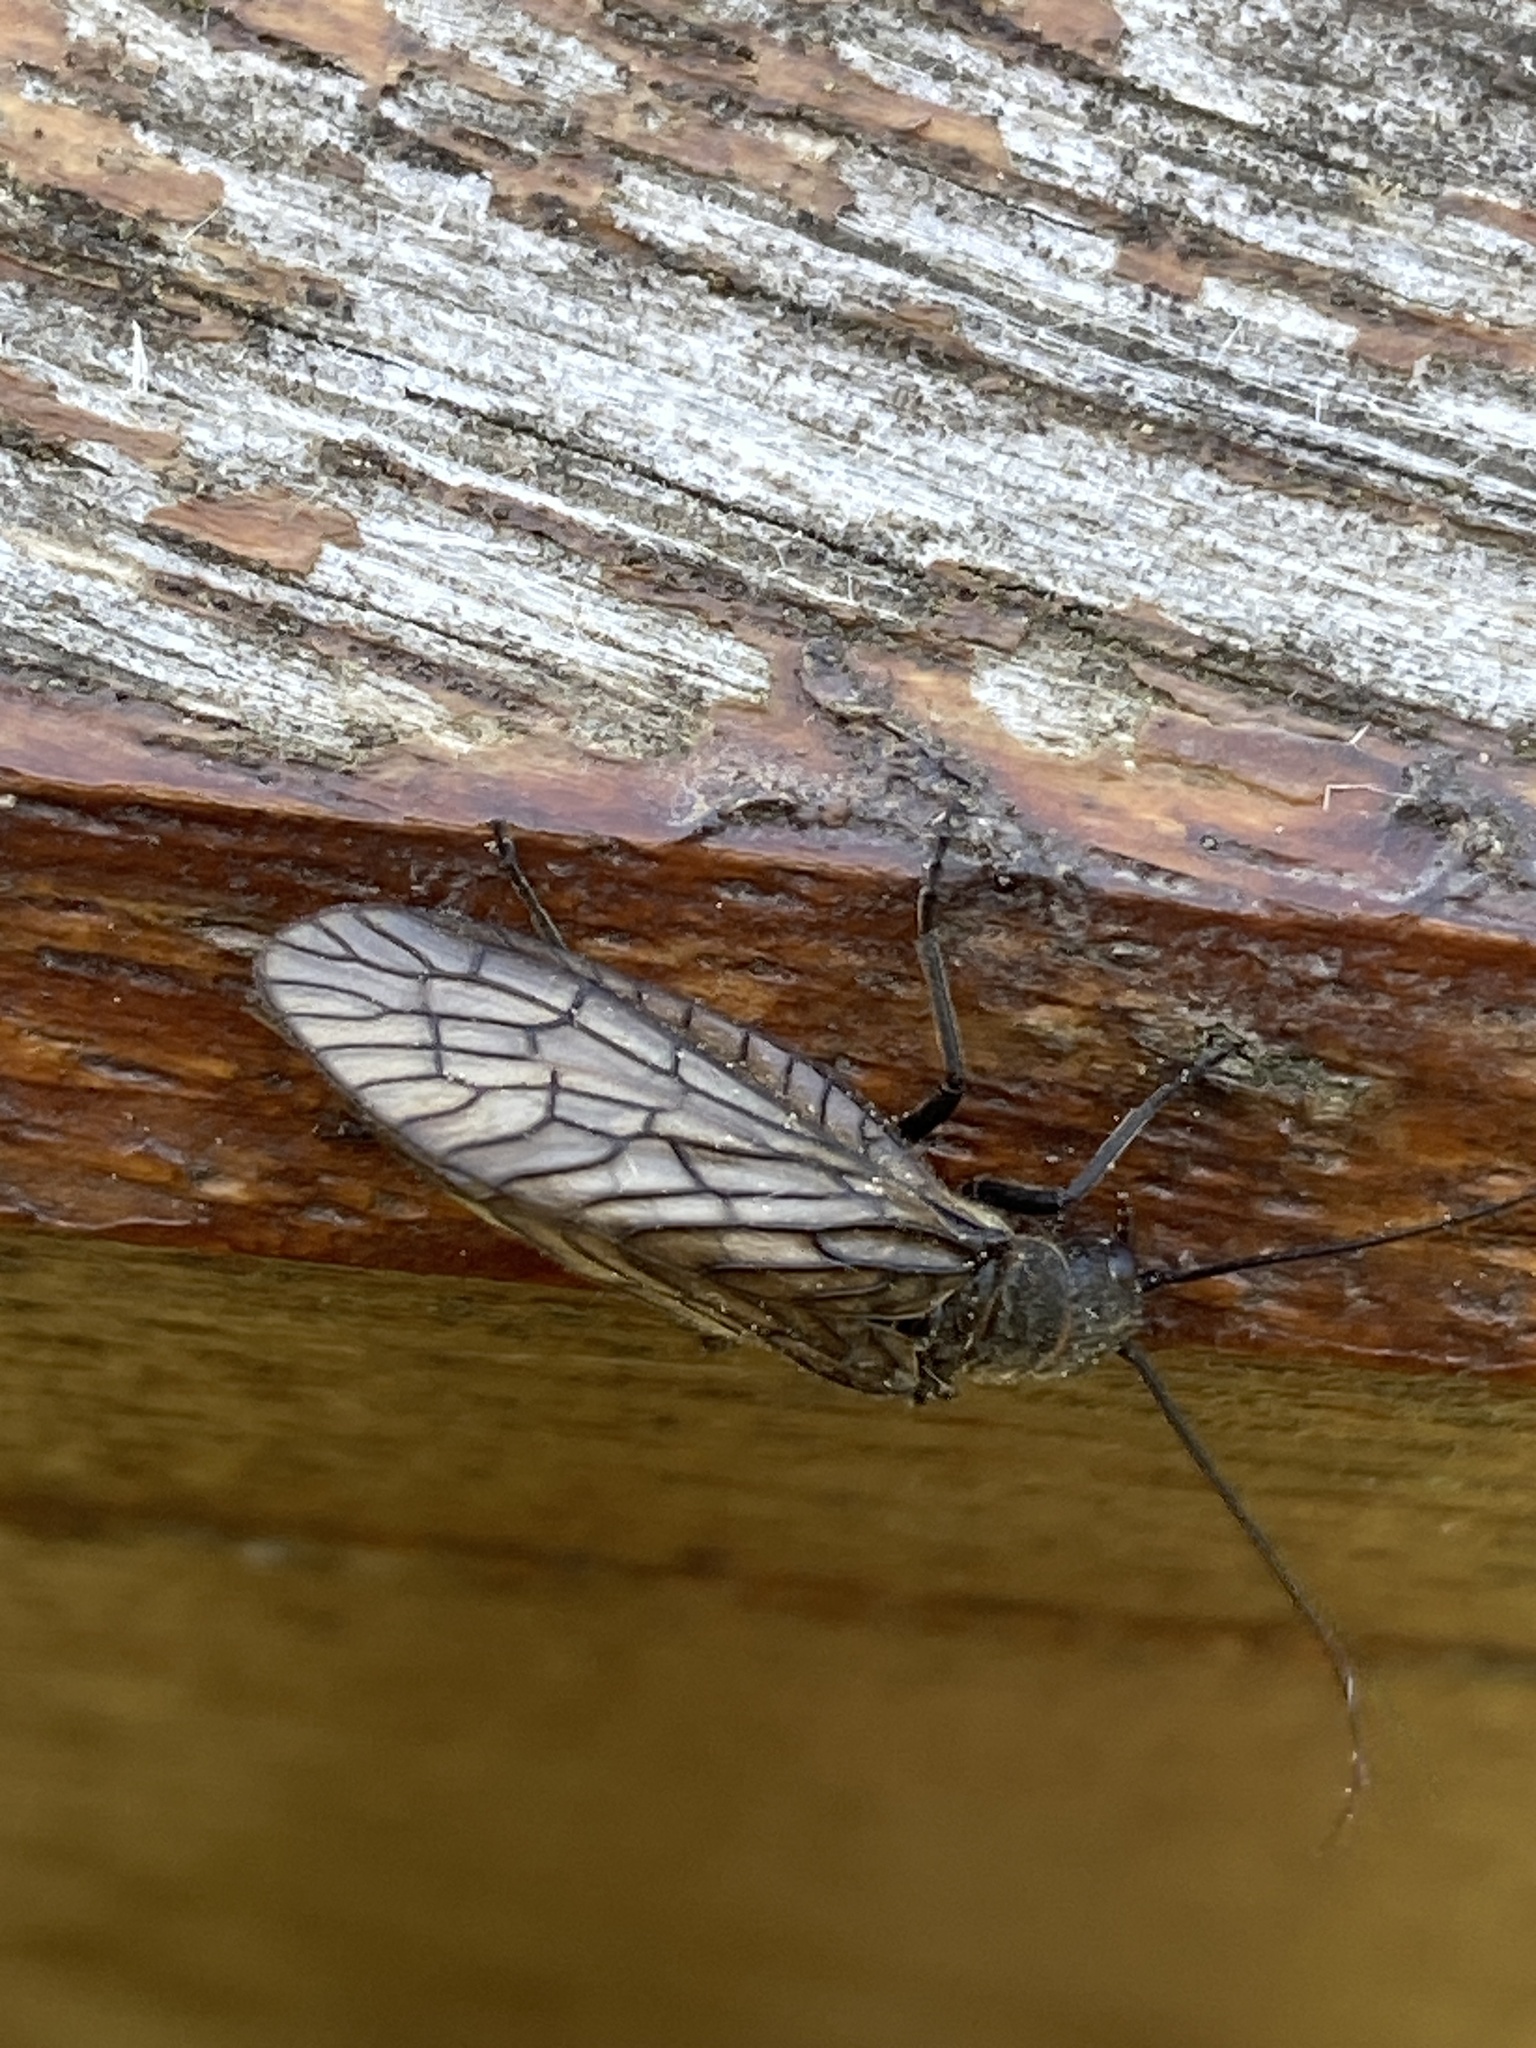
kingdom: Animalia
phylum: Arthropoda
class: Insecta
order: Megaloptera
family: Sialidae
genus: Sialis
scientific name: Sialis
